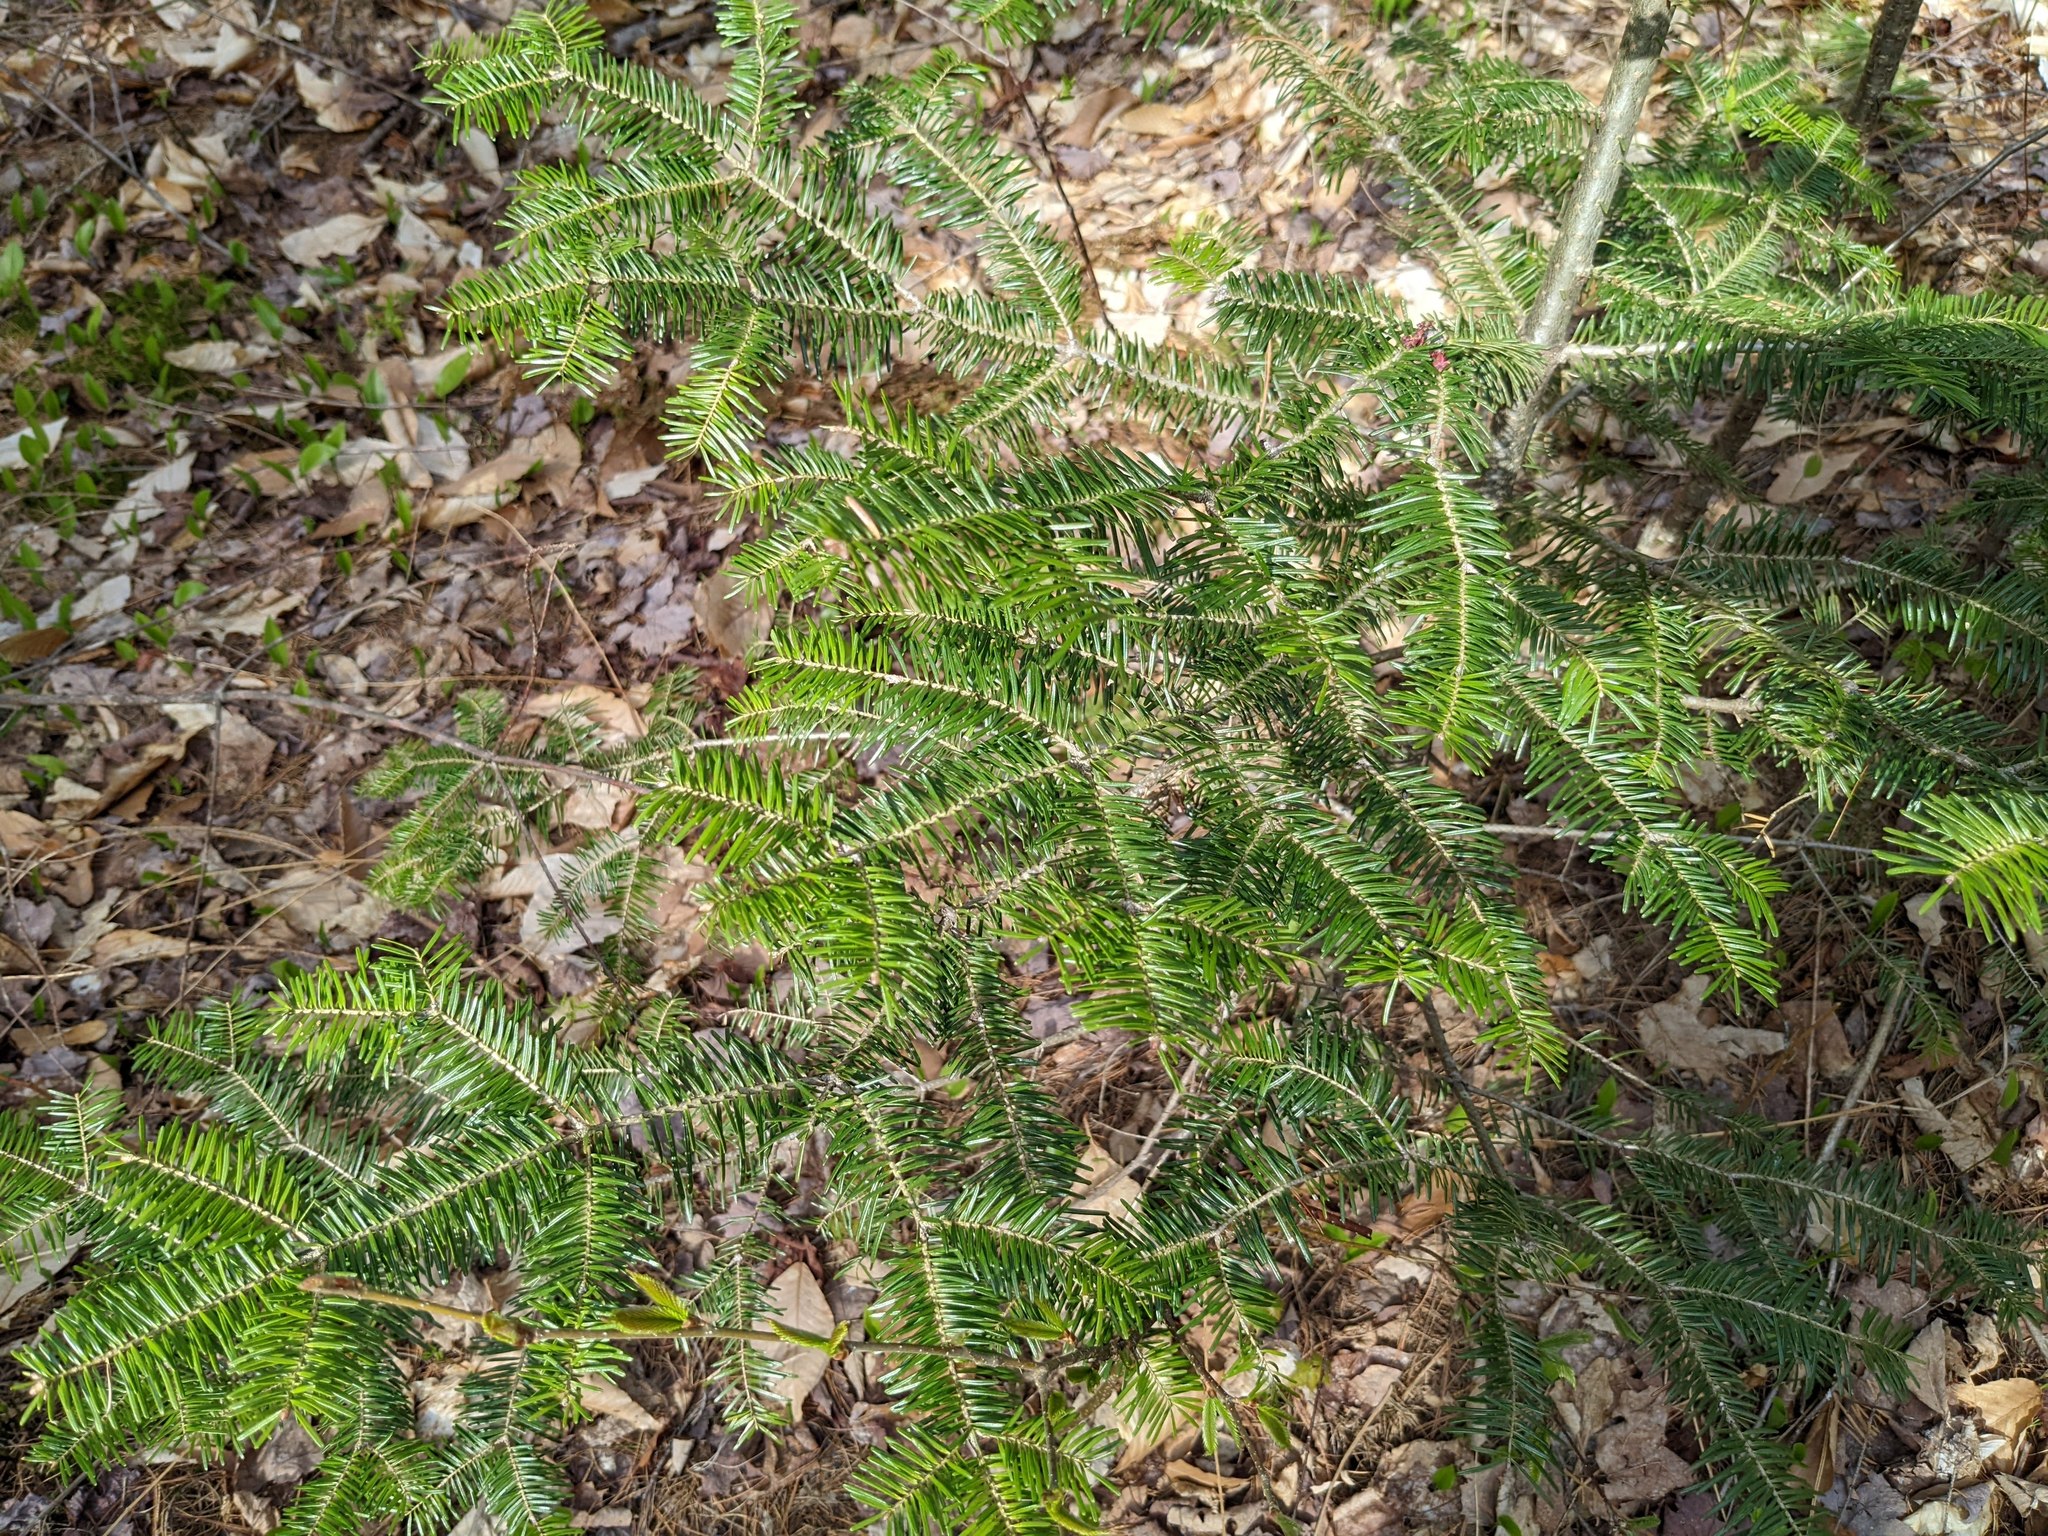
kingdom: Plantae
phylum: Tracheophyta
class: Pinopsida
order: Pinales
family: Pinaceae
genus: Abies
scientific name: Abies balsamea
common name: Balsam fir
